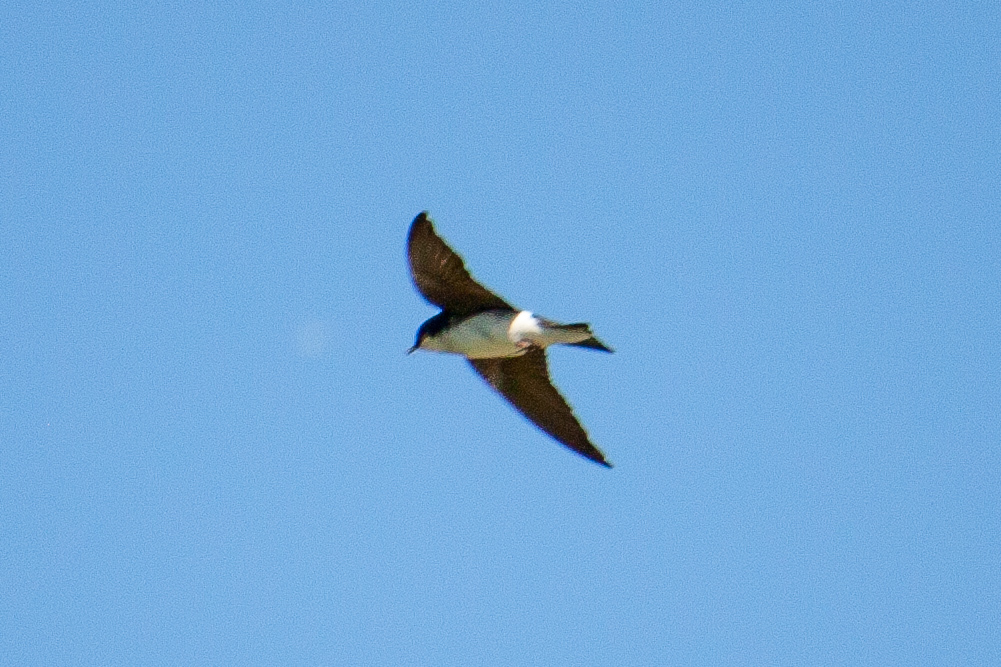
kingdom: Animalia
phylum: Chordata
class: Aves
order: Passeriformes
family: Hirundinidae
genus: Tachycineta
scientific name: Tachycineta bicolor
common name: Tree swallow
